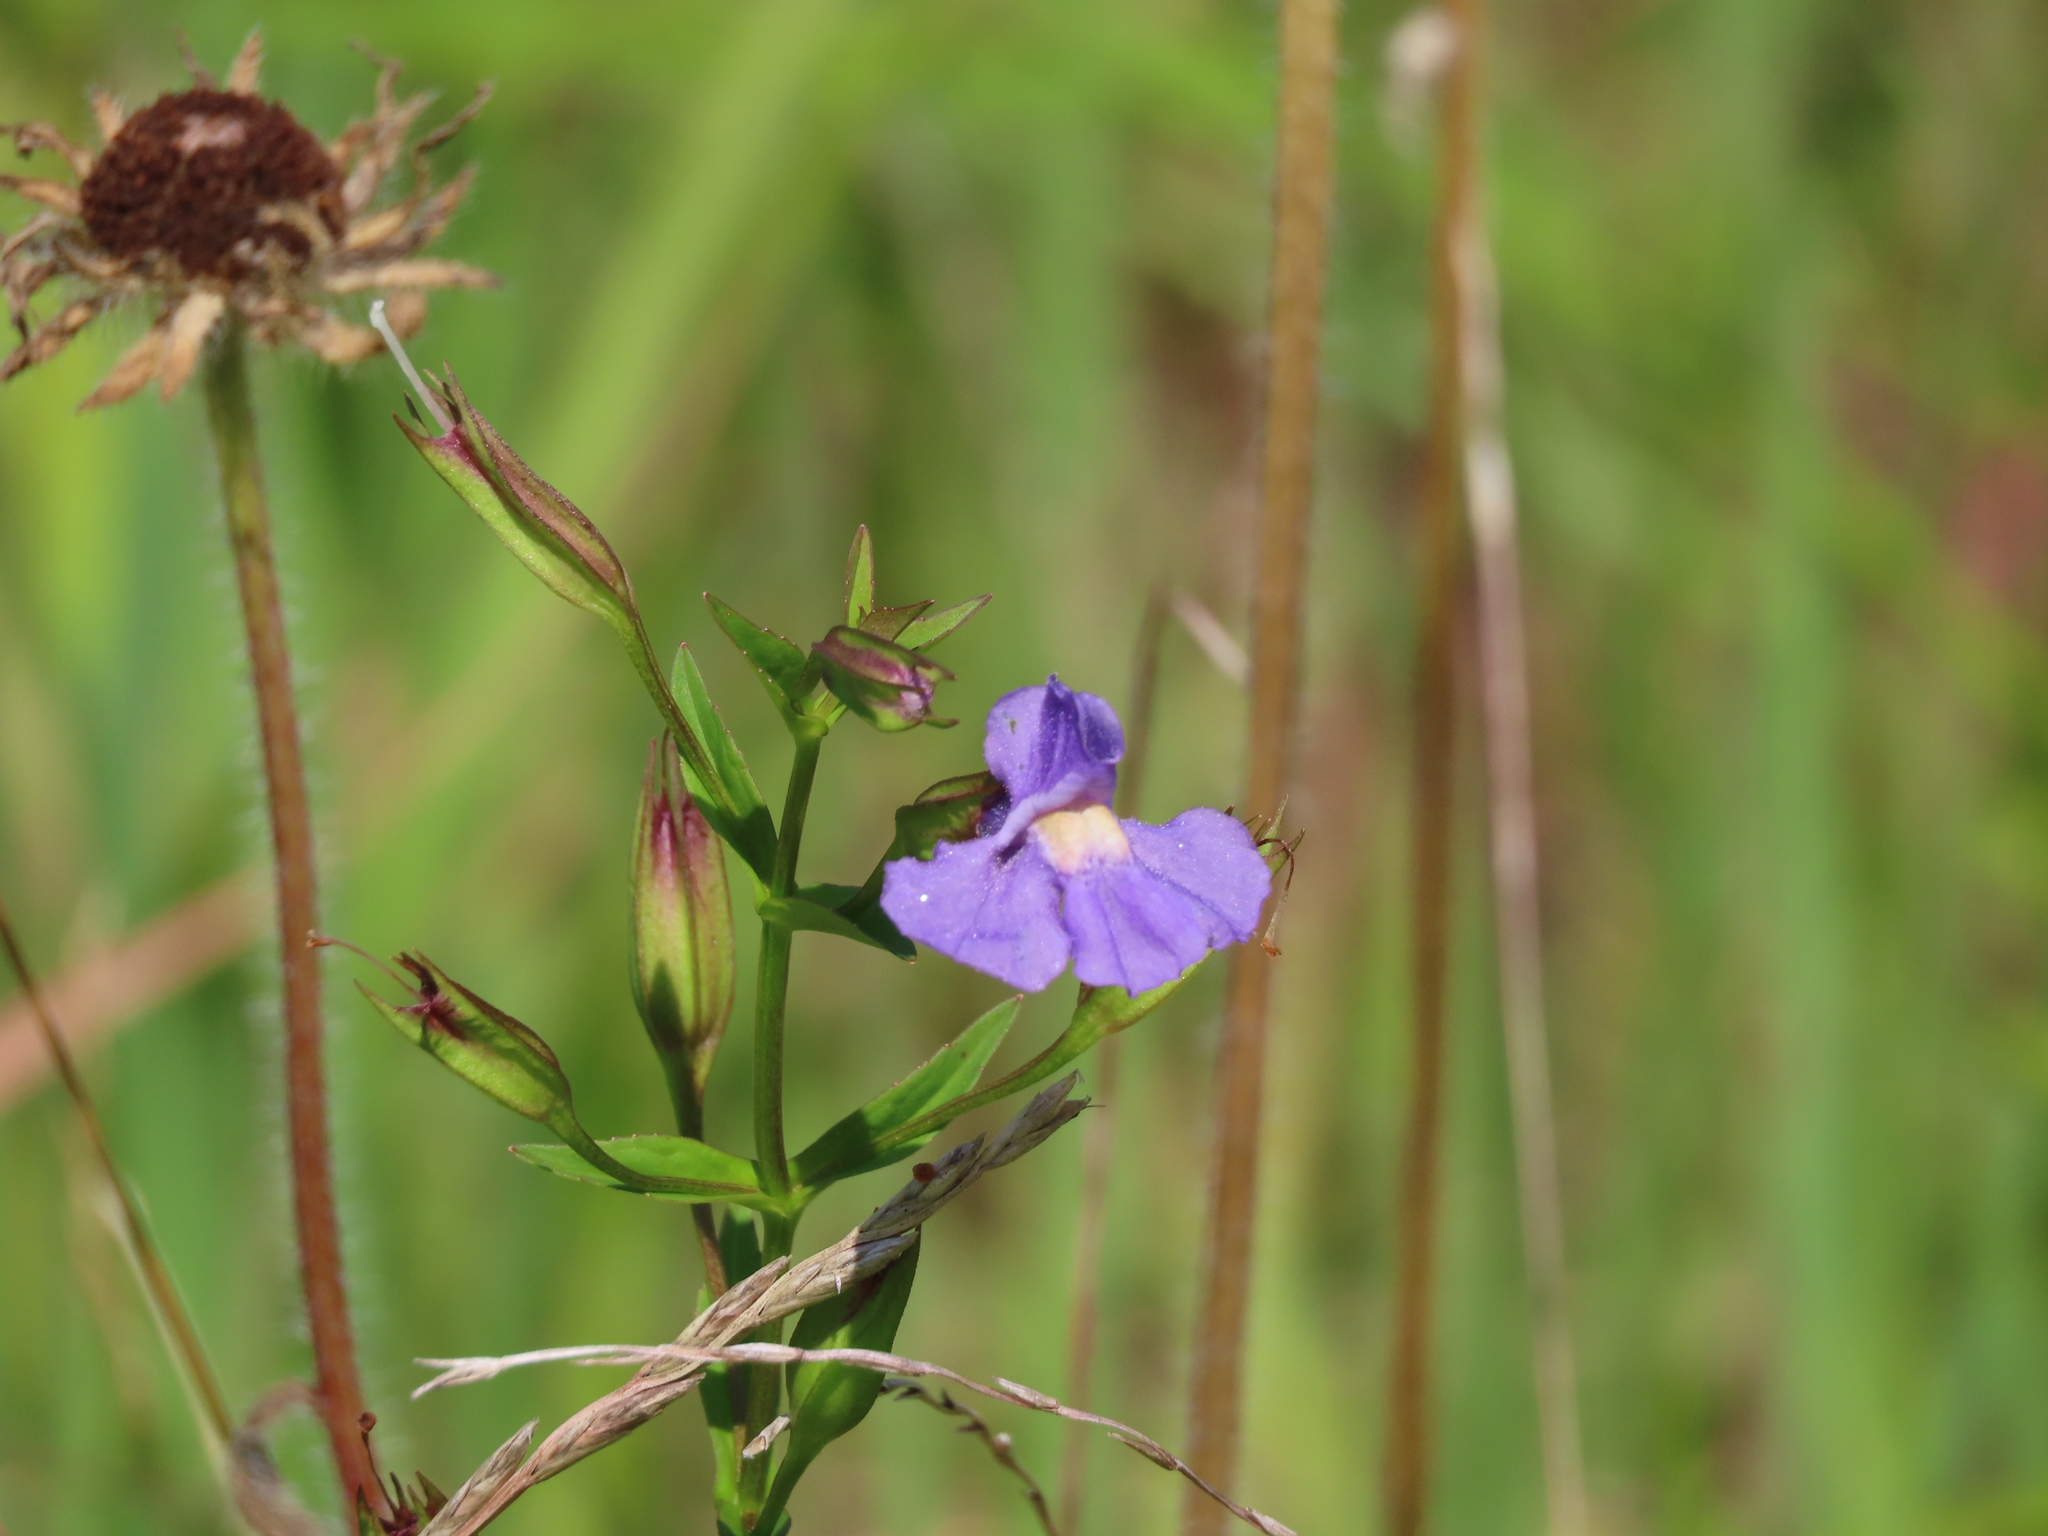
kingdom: Plantae
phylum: Tracheophyta
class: Magnoliopsida
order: Lamiales
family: Phrymaceae
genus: Mimulus
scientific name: Mimulus ringens
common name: Allegheny monkeyflower
